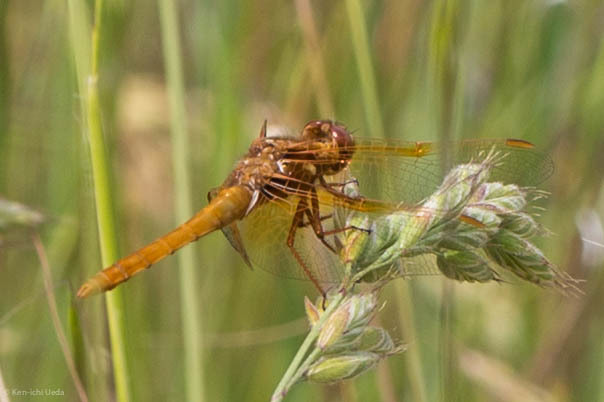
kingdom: Animalia
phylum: Arthropoda
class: Insecta
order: Odonata
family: Libellulidae
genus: Sympetrum
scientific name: Sympetrum illotum
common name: Cardinal meadowhawk
